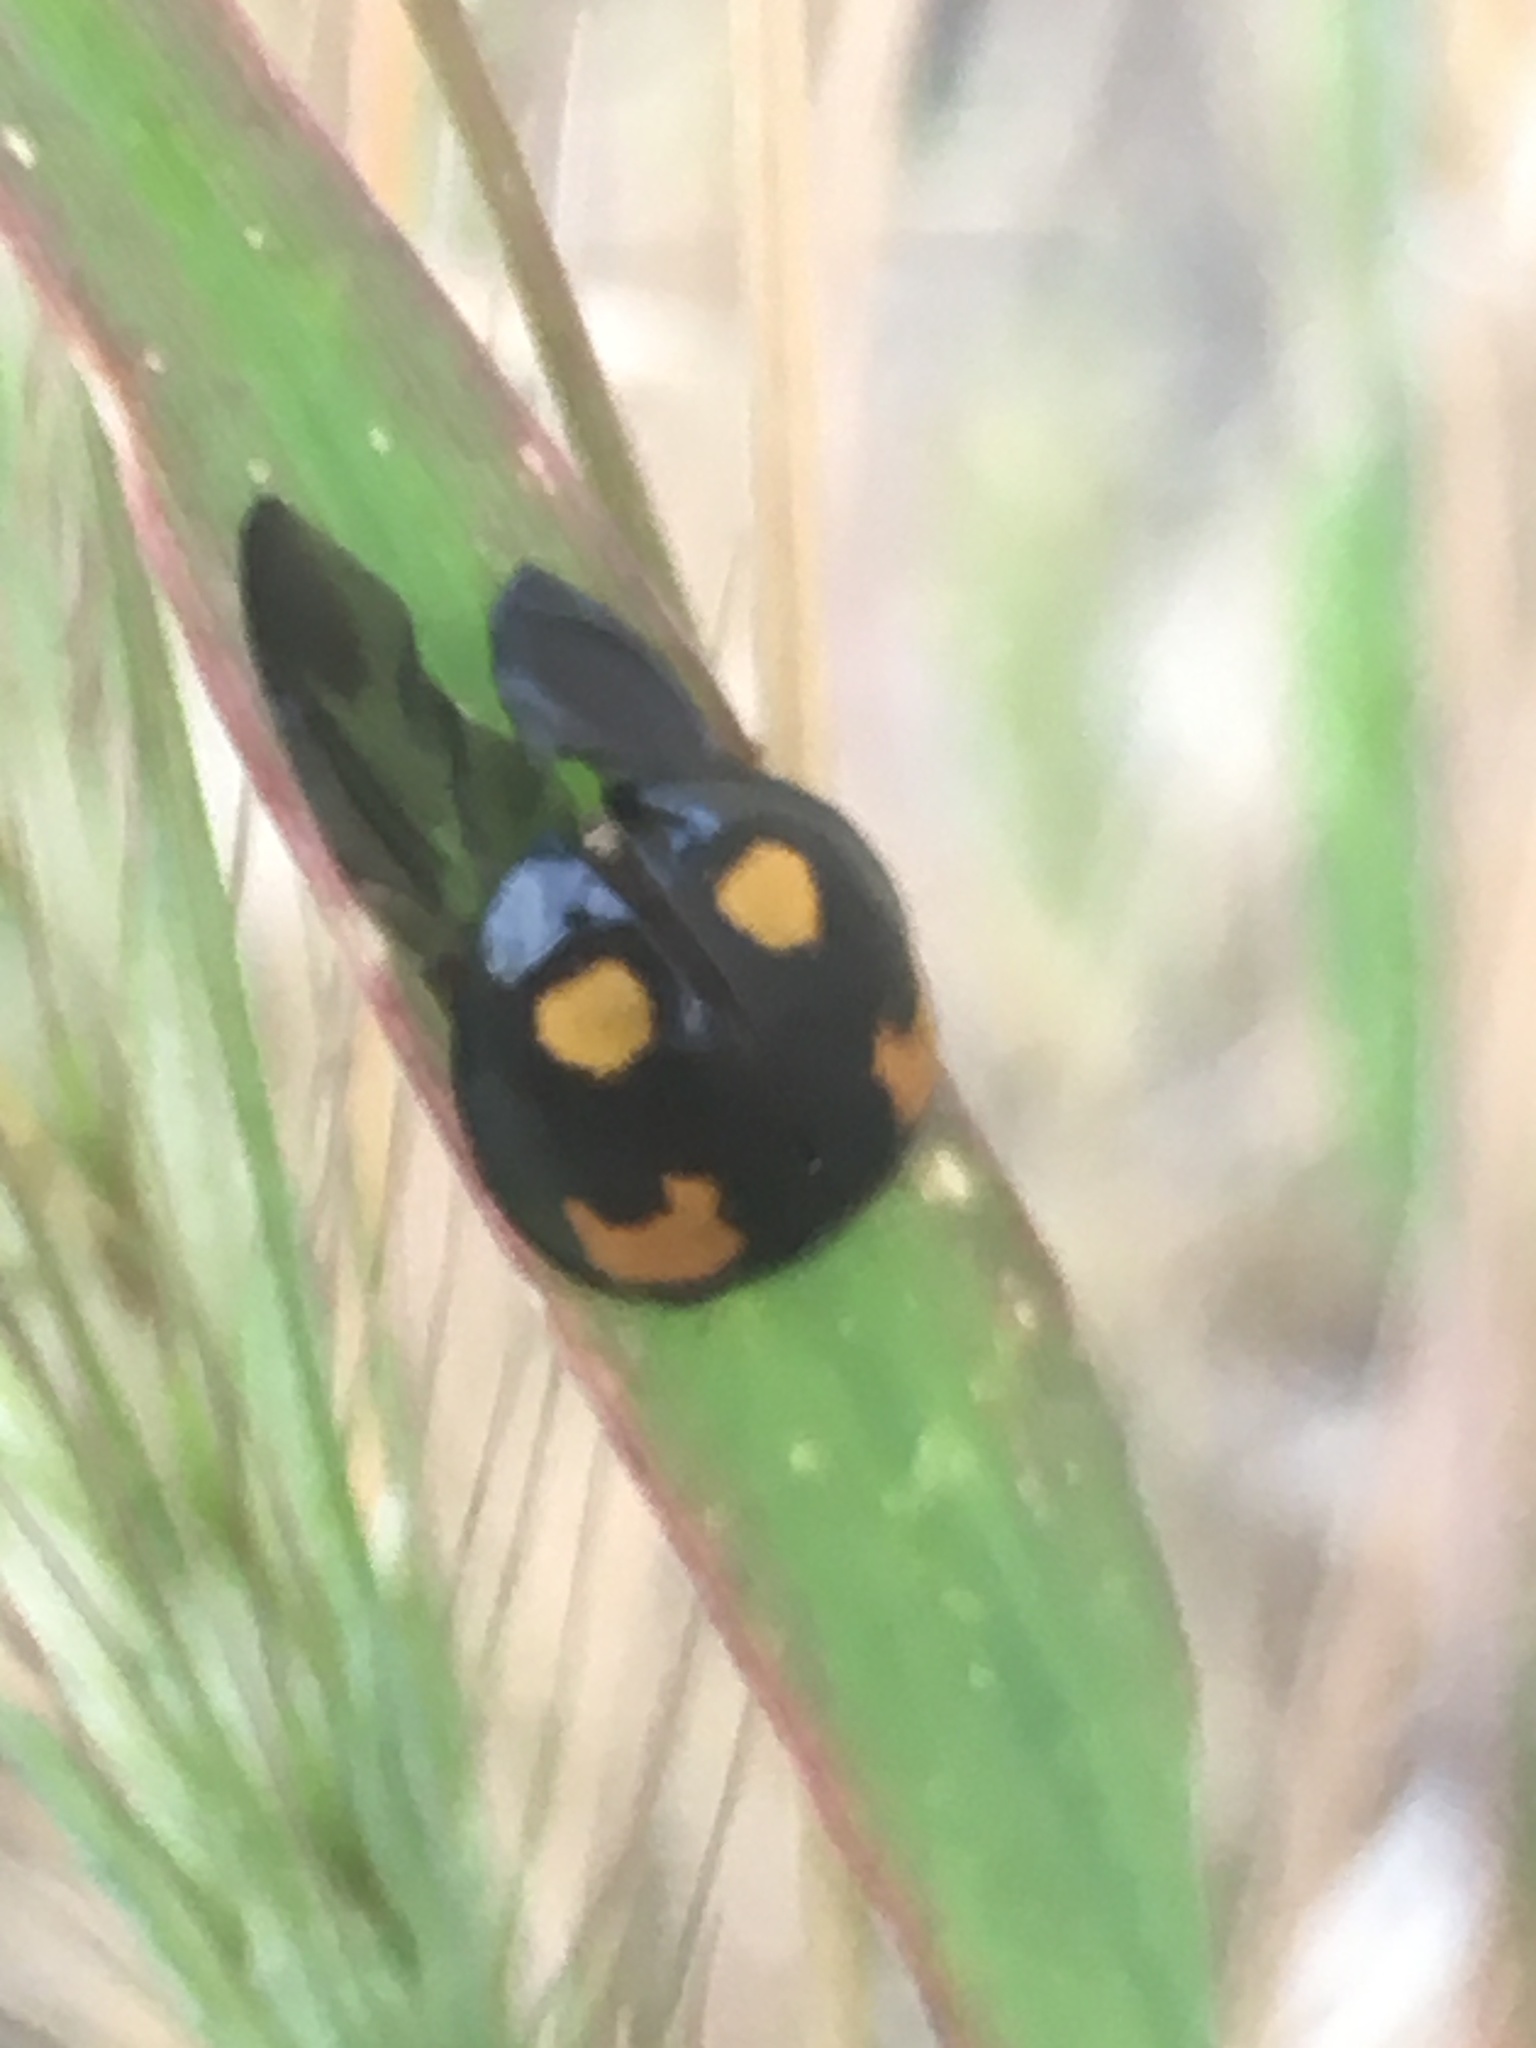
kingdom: Animalia
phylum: Arthropoda
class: Insecta
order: Coleoptera
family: Coccinellidae
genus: Harmonia
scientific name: Harmonia axyridis
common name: Harlequin ladybird
